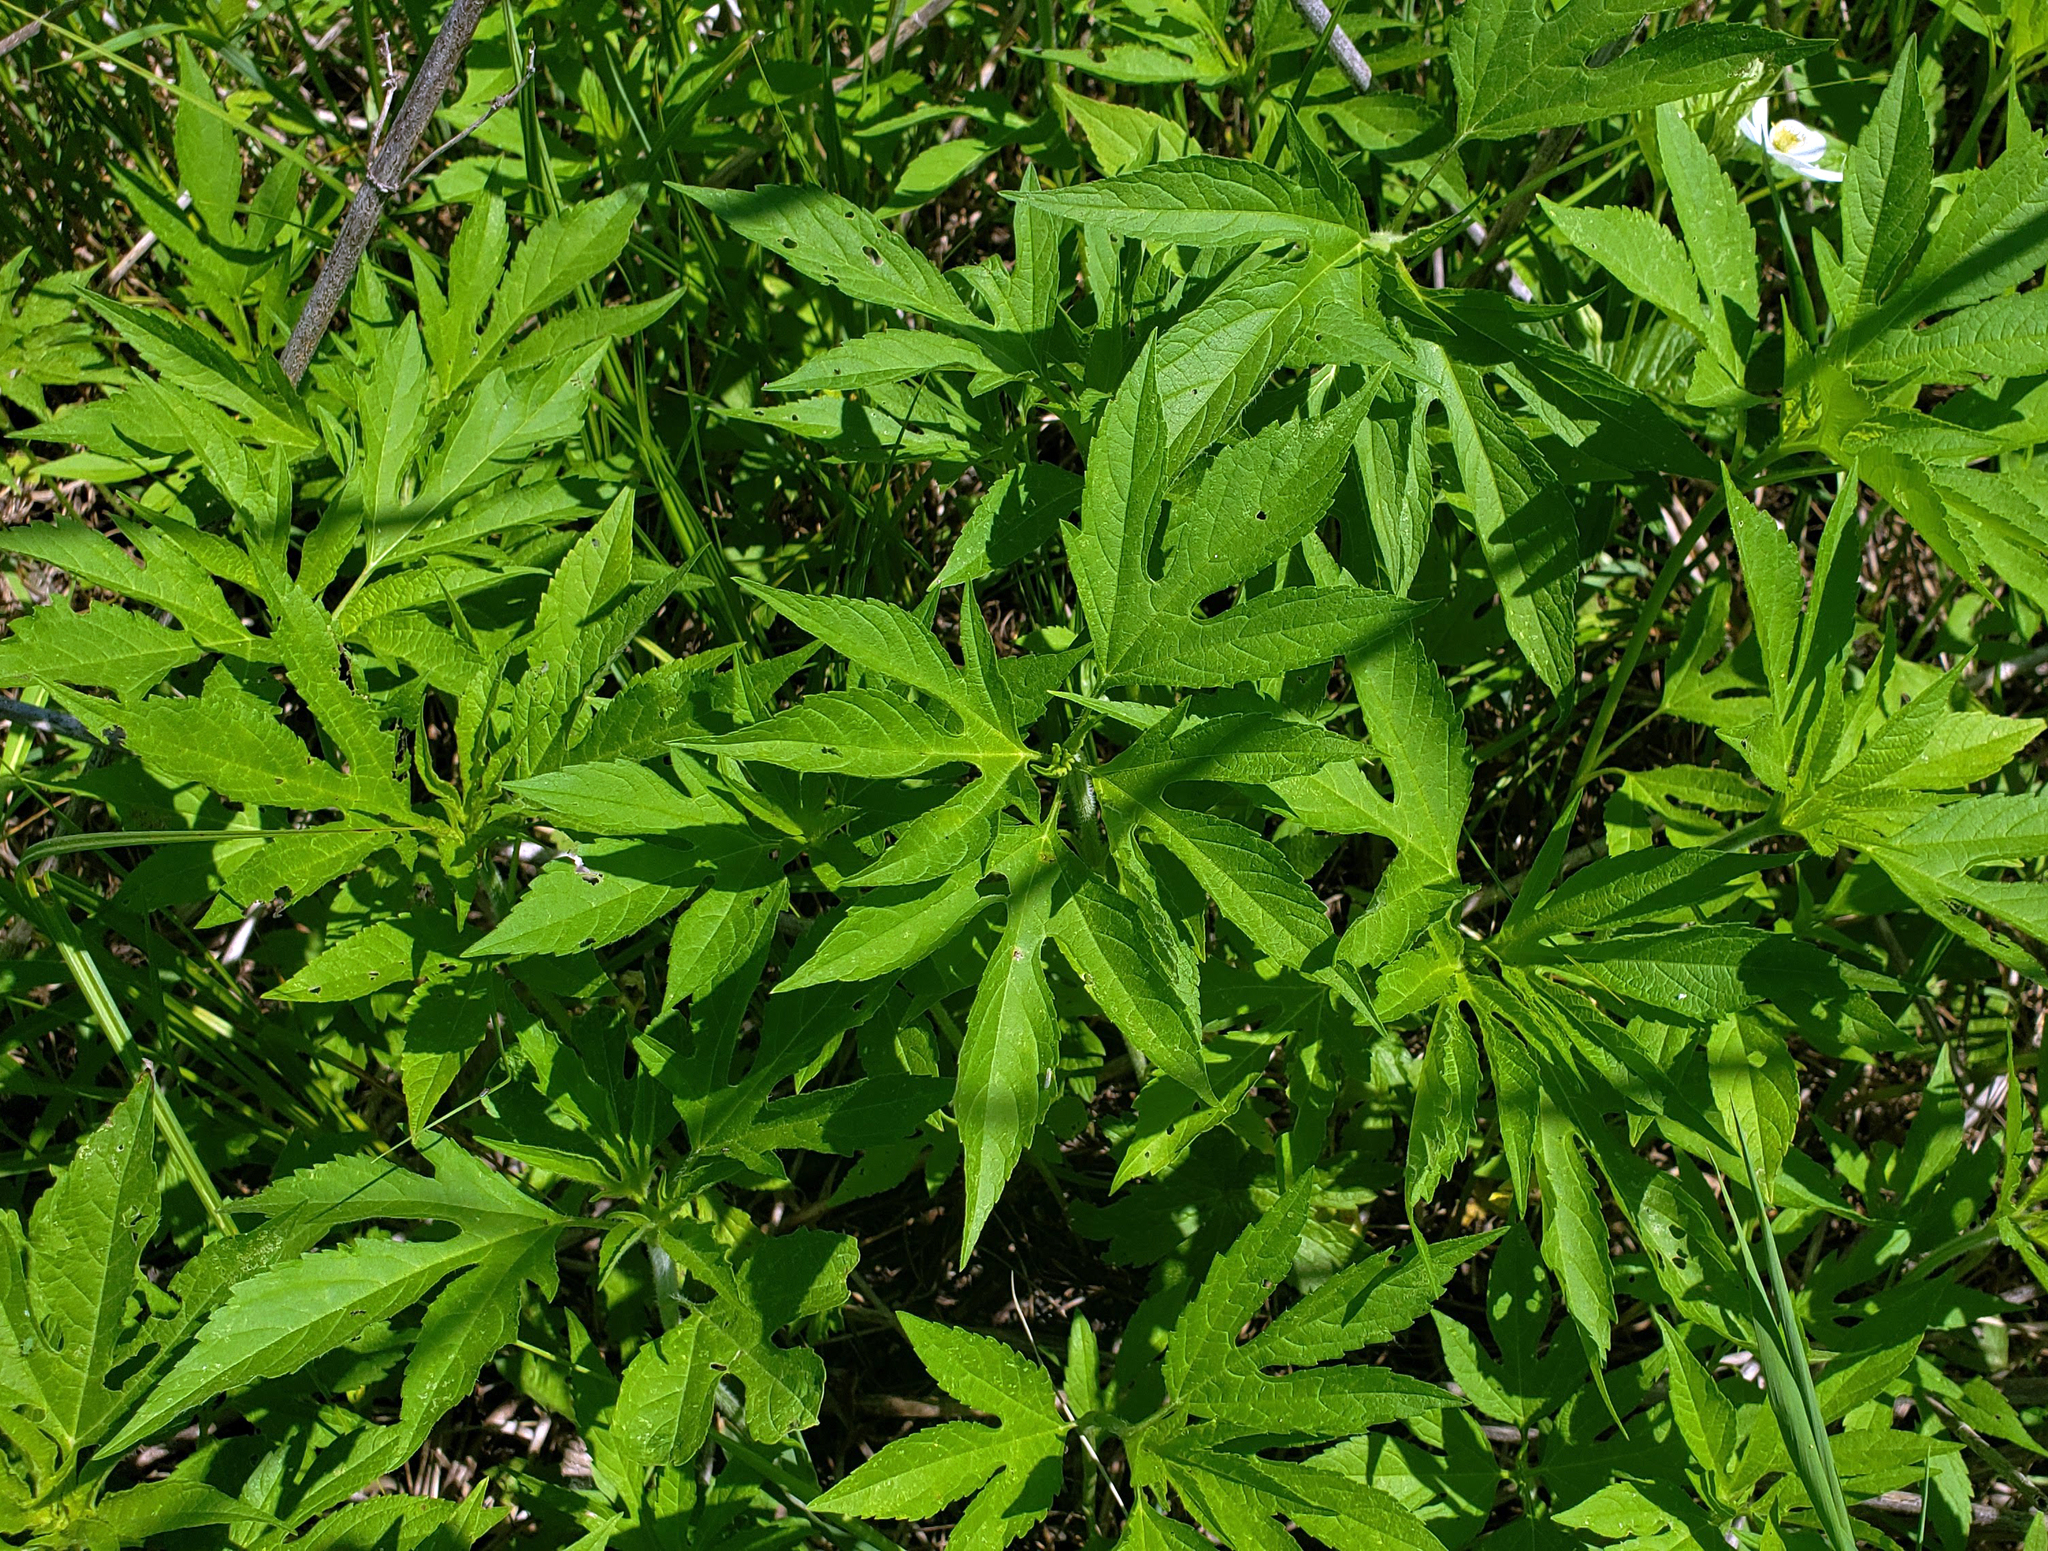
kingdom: Plantae
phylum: Tracheophyta
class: Magnoliopsida
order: Asterales
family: Asteraceae
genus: Ambrosia
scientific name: Ambrosia trifida
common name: Giant ragweed
